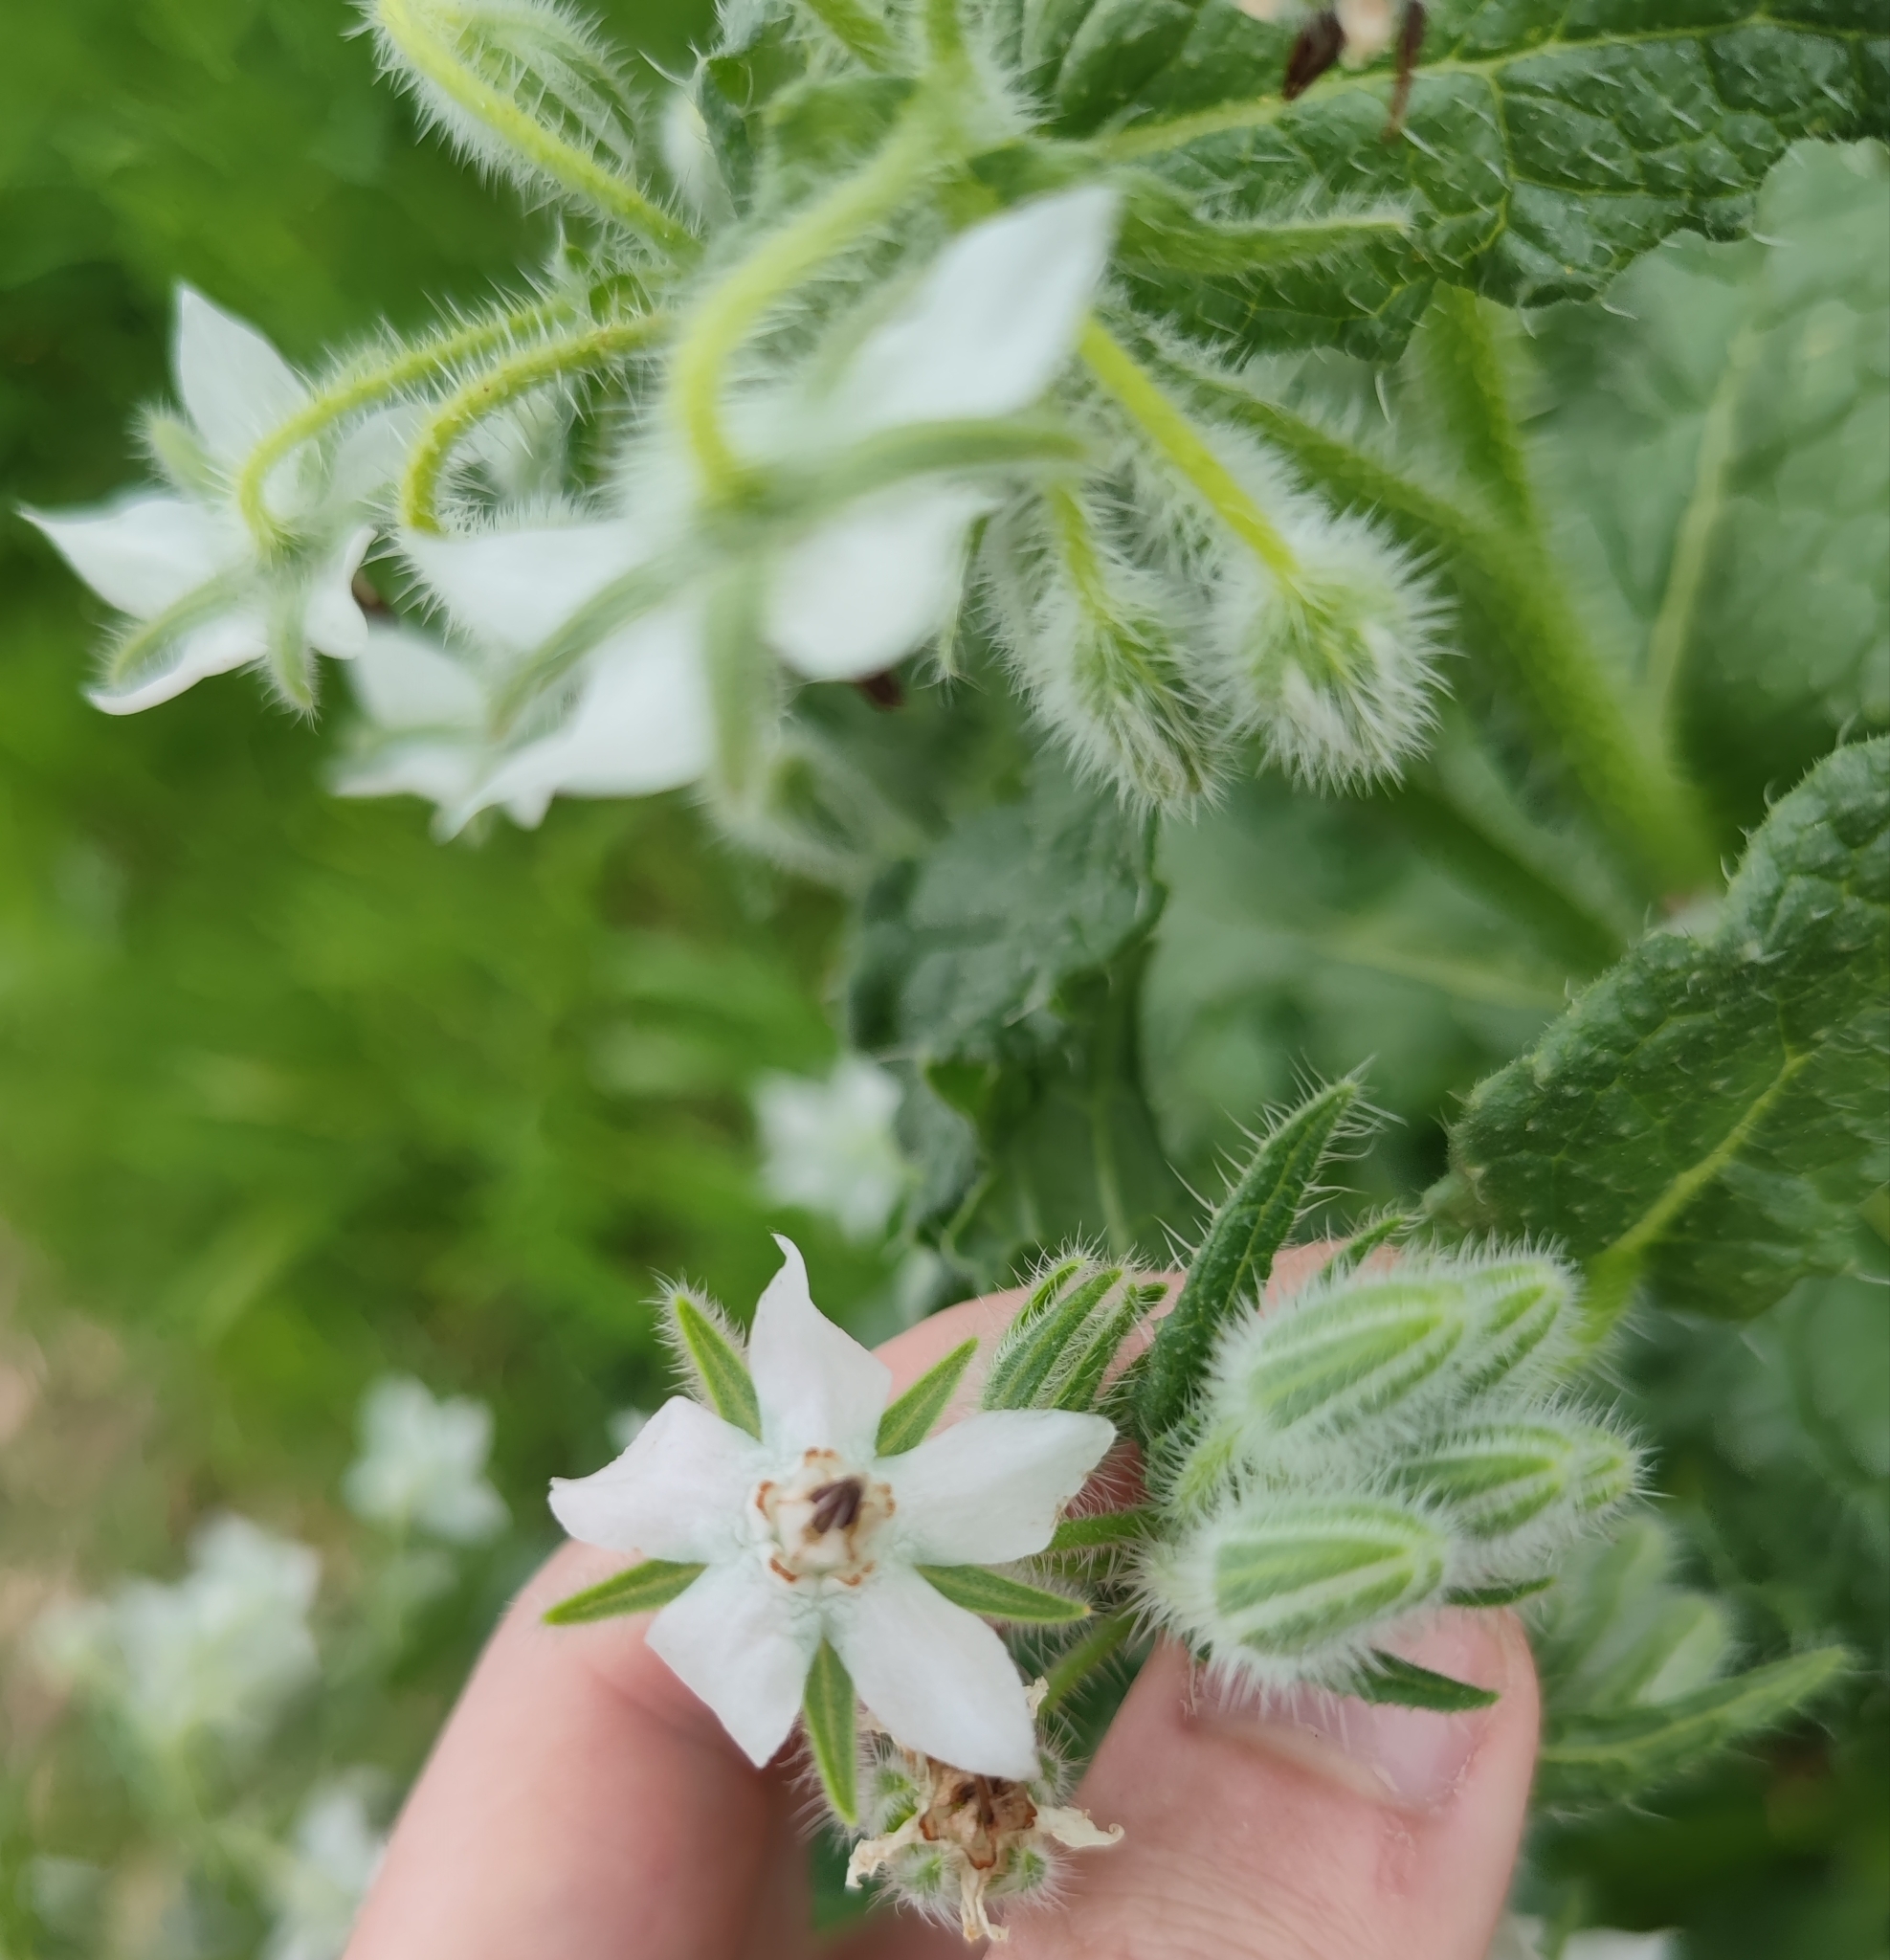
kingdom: Plantae
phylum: Tracheophyta
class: Magnoliopsida
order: Boraginales
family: Boraginaceae
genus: Borago
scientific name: Borago officinalis
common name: Borage
